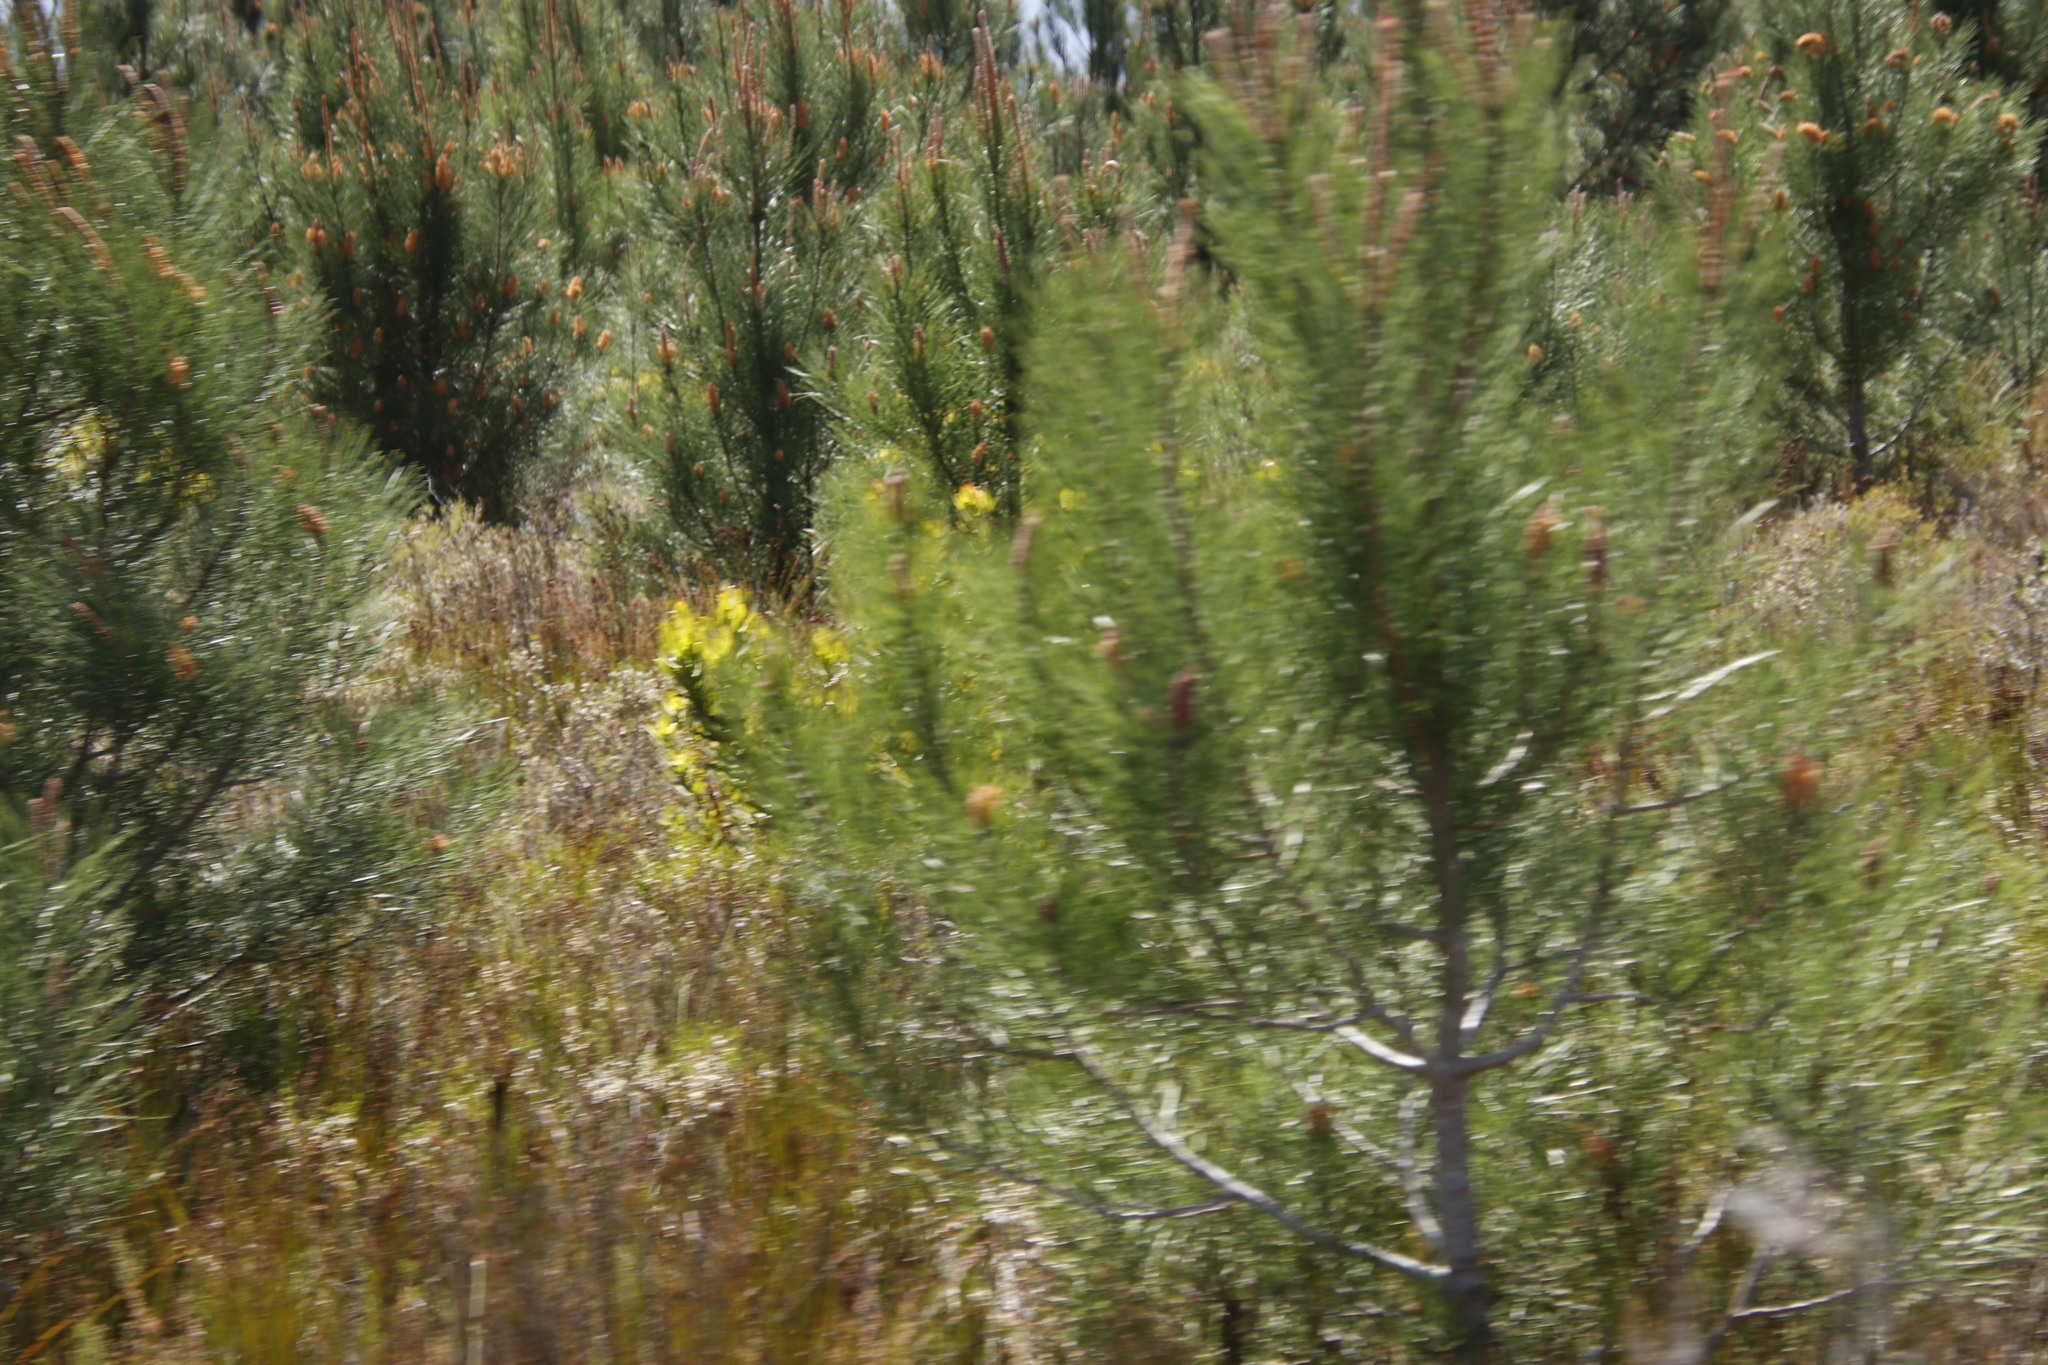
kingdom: Plantae
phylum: Tracheophyta
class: Pinopsida
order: Pinales
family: Pinaceae
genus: Pinus
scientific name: Pinus pinaster
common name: Maritime pine
